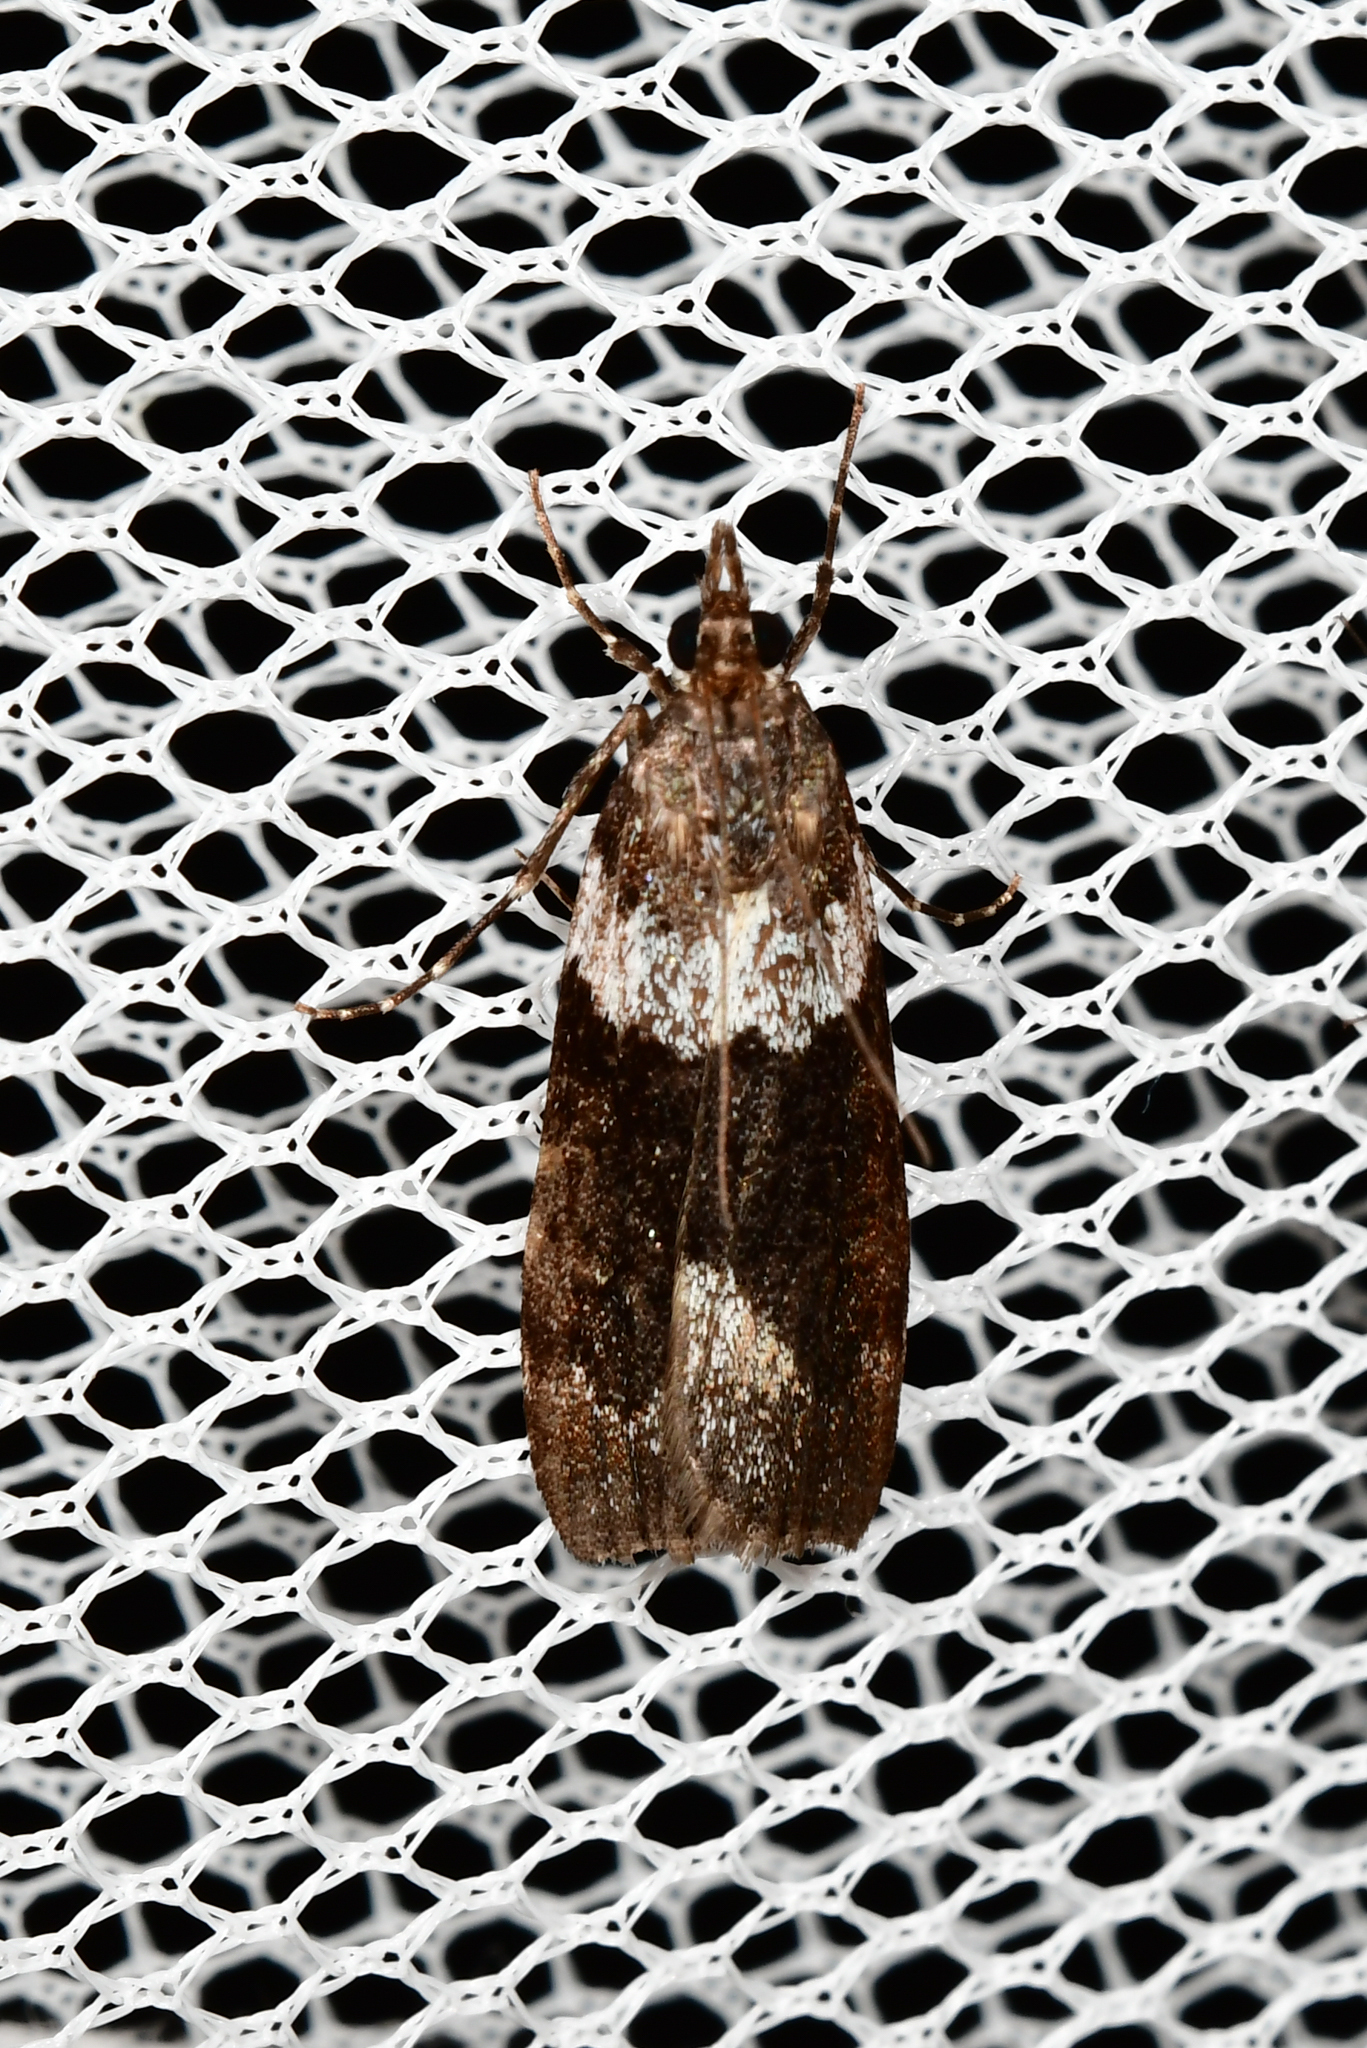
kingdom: Animalia
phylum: Arthropoda
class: Insecta
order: Lepidoptera
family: Crambidae
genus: Eudonia
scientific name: Eudonia submarginalis
